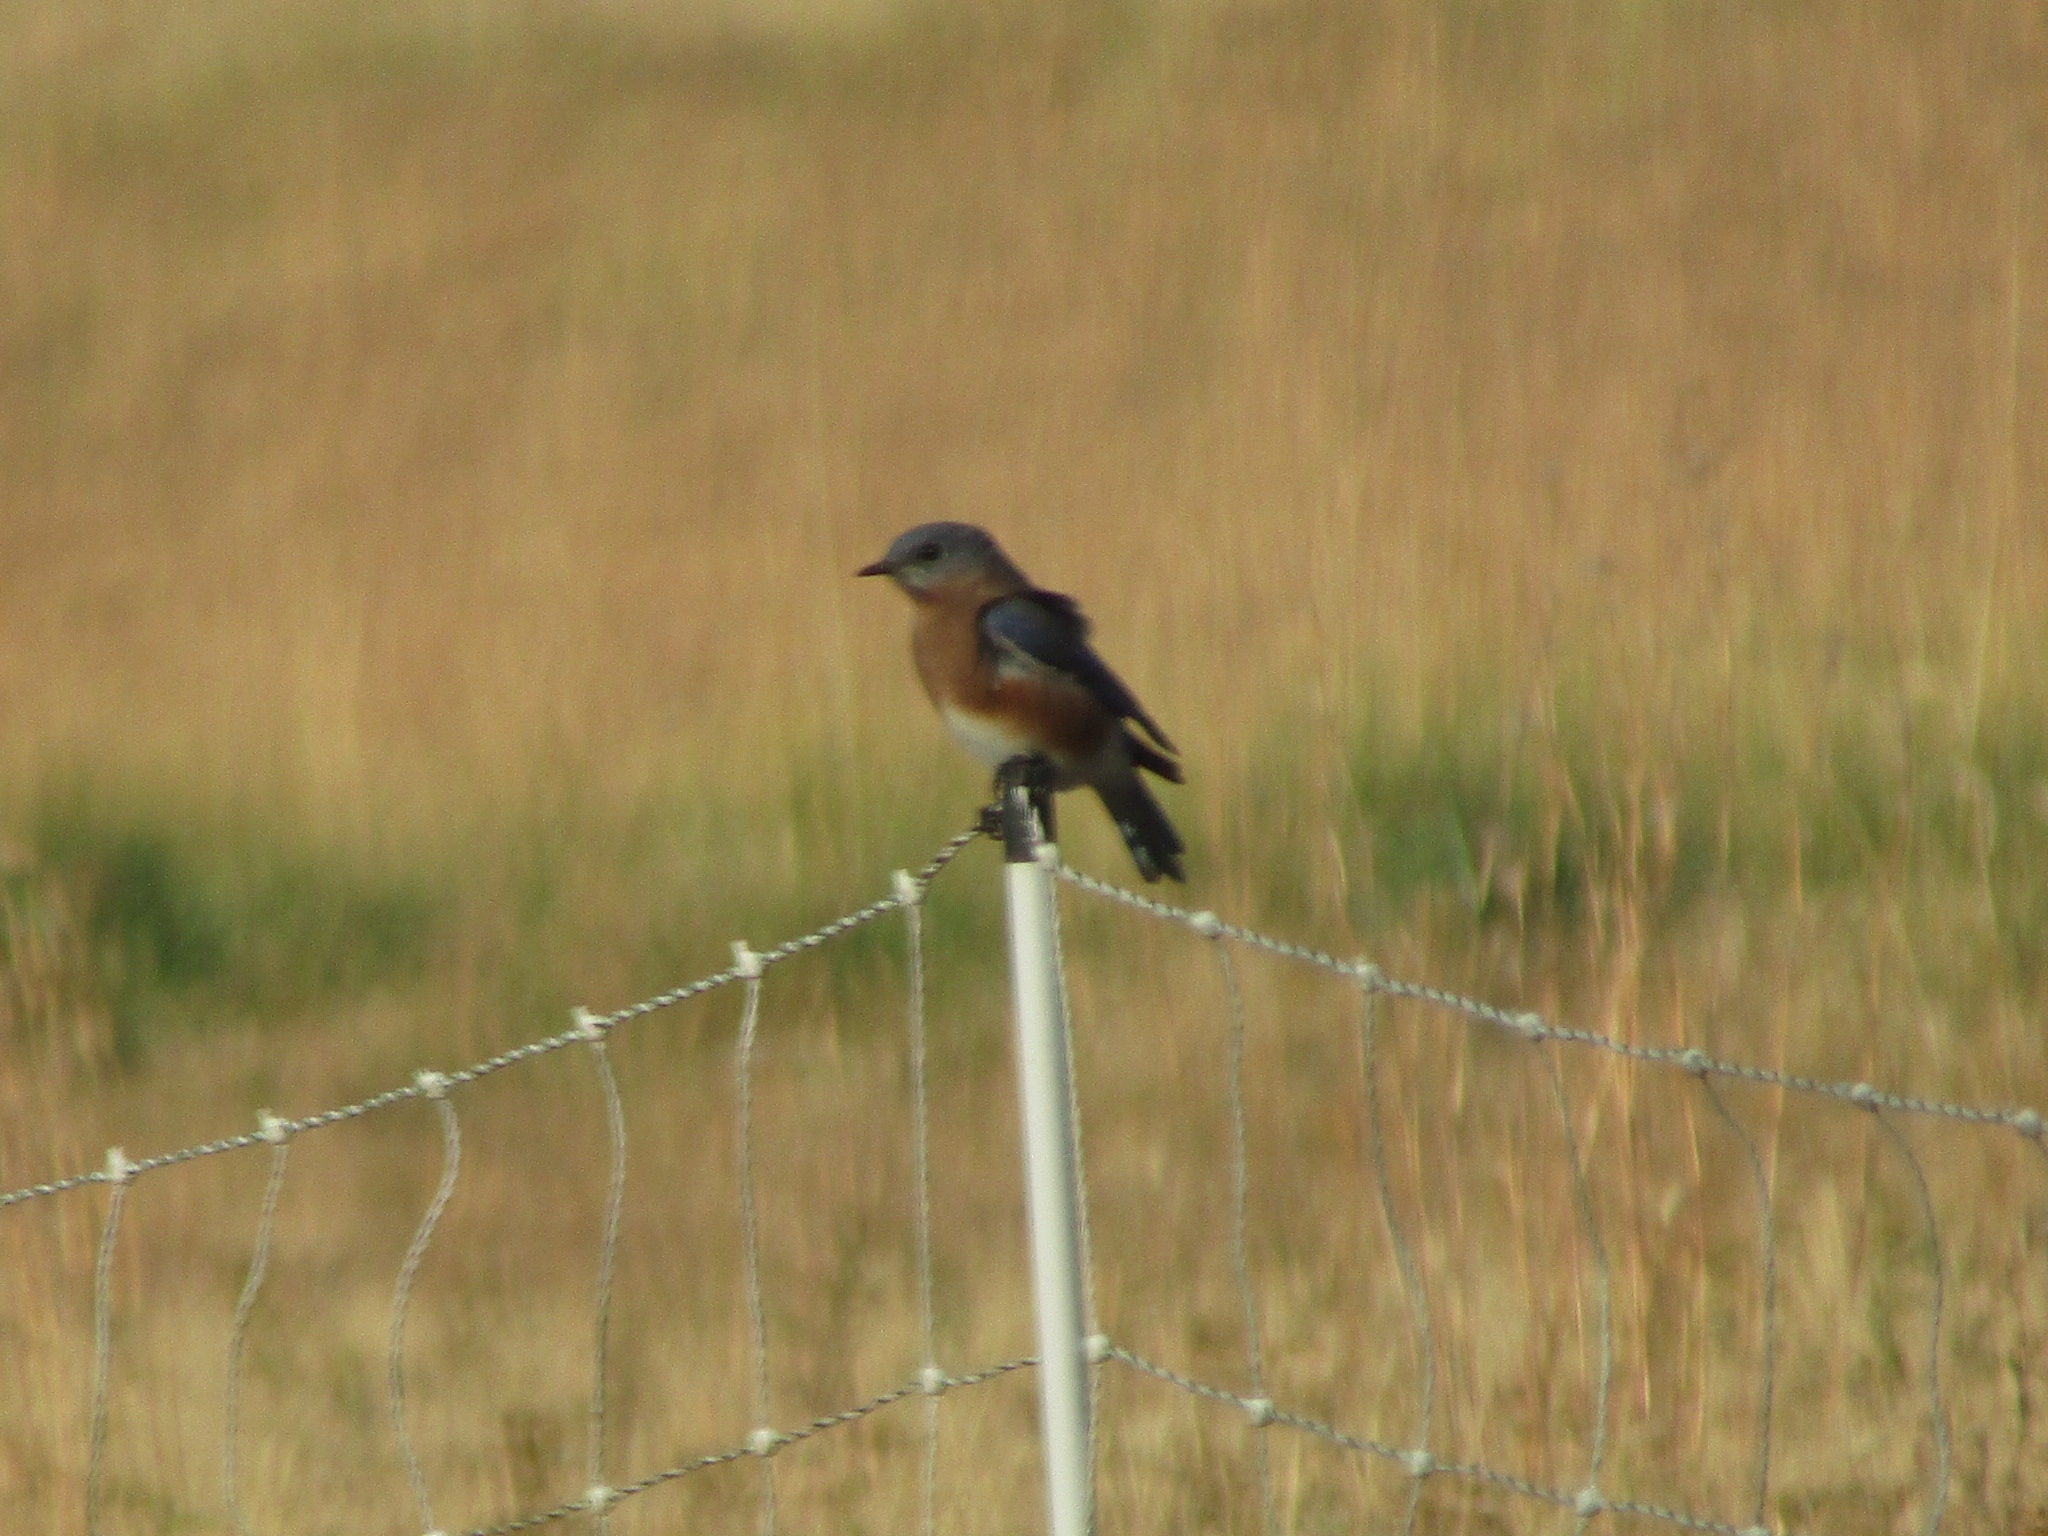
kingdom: Animalia
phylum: Chordata
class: Aves
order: Passeriformes
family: Turdidae
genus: Sialia
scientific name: Sialia sialis
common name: Eastern bluebird
